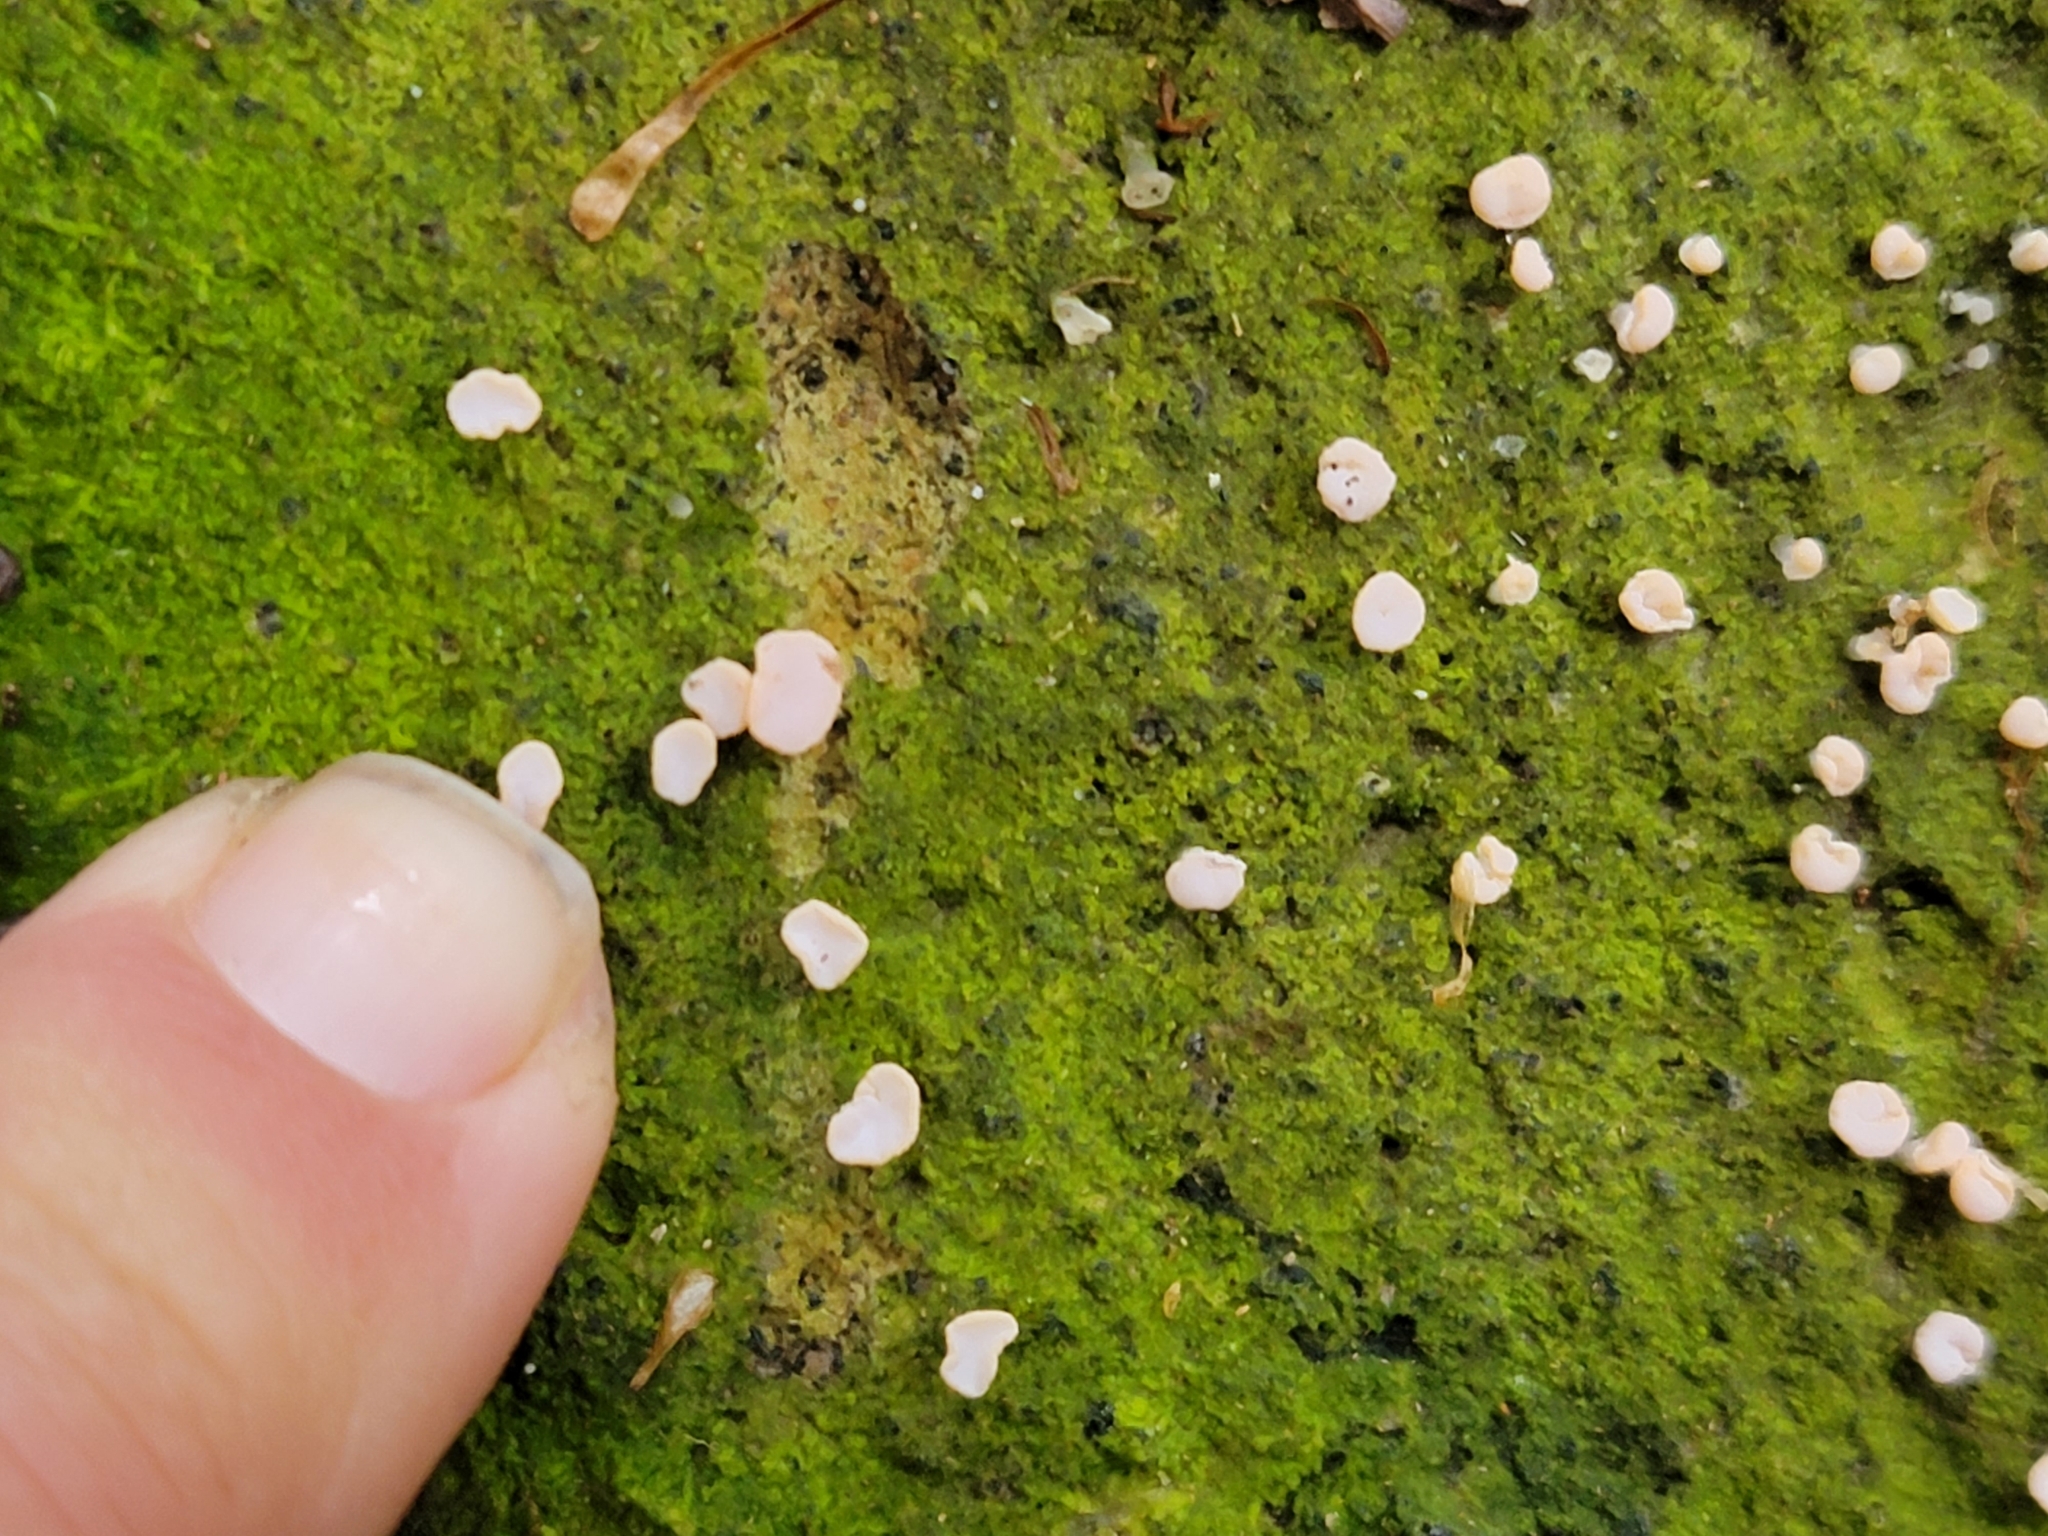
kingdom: Fungi
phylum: Ascomycota
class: Lecanoromycetes
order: Pertusariales
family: Icmadophilaceae
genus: Dibaeis
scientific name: Dibaeis absoluta
